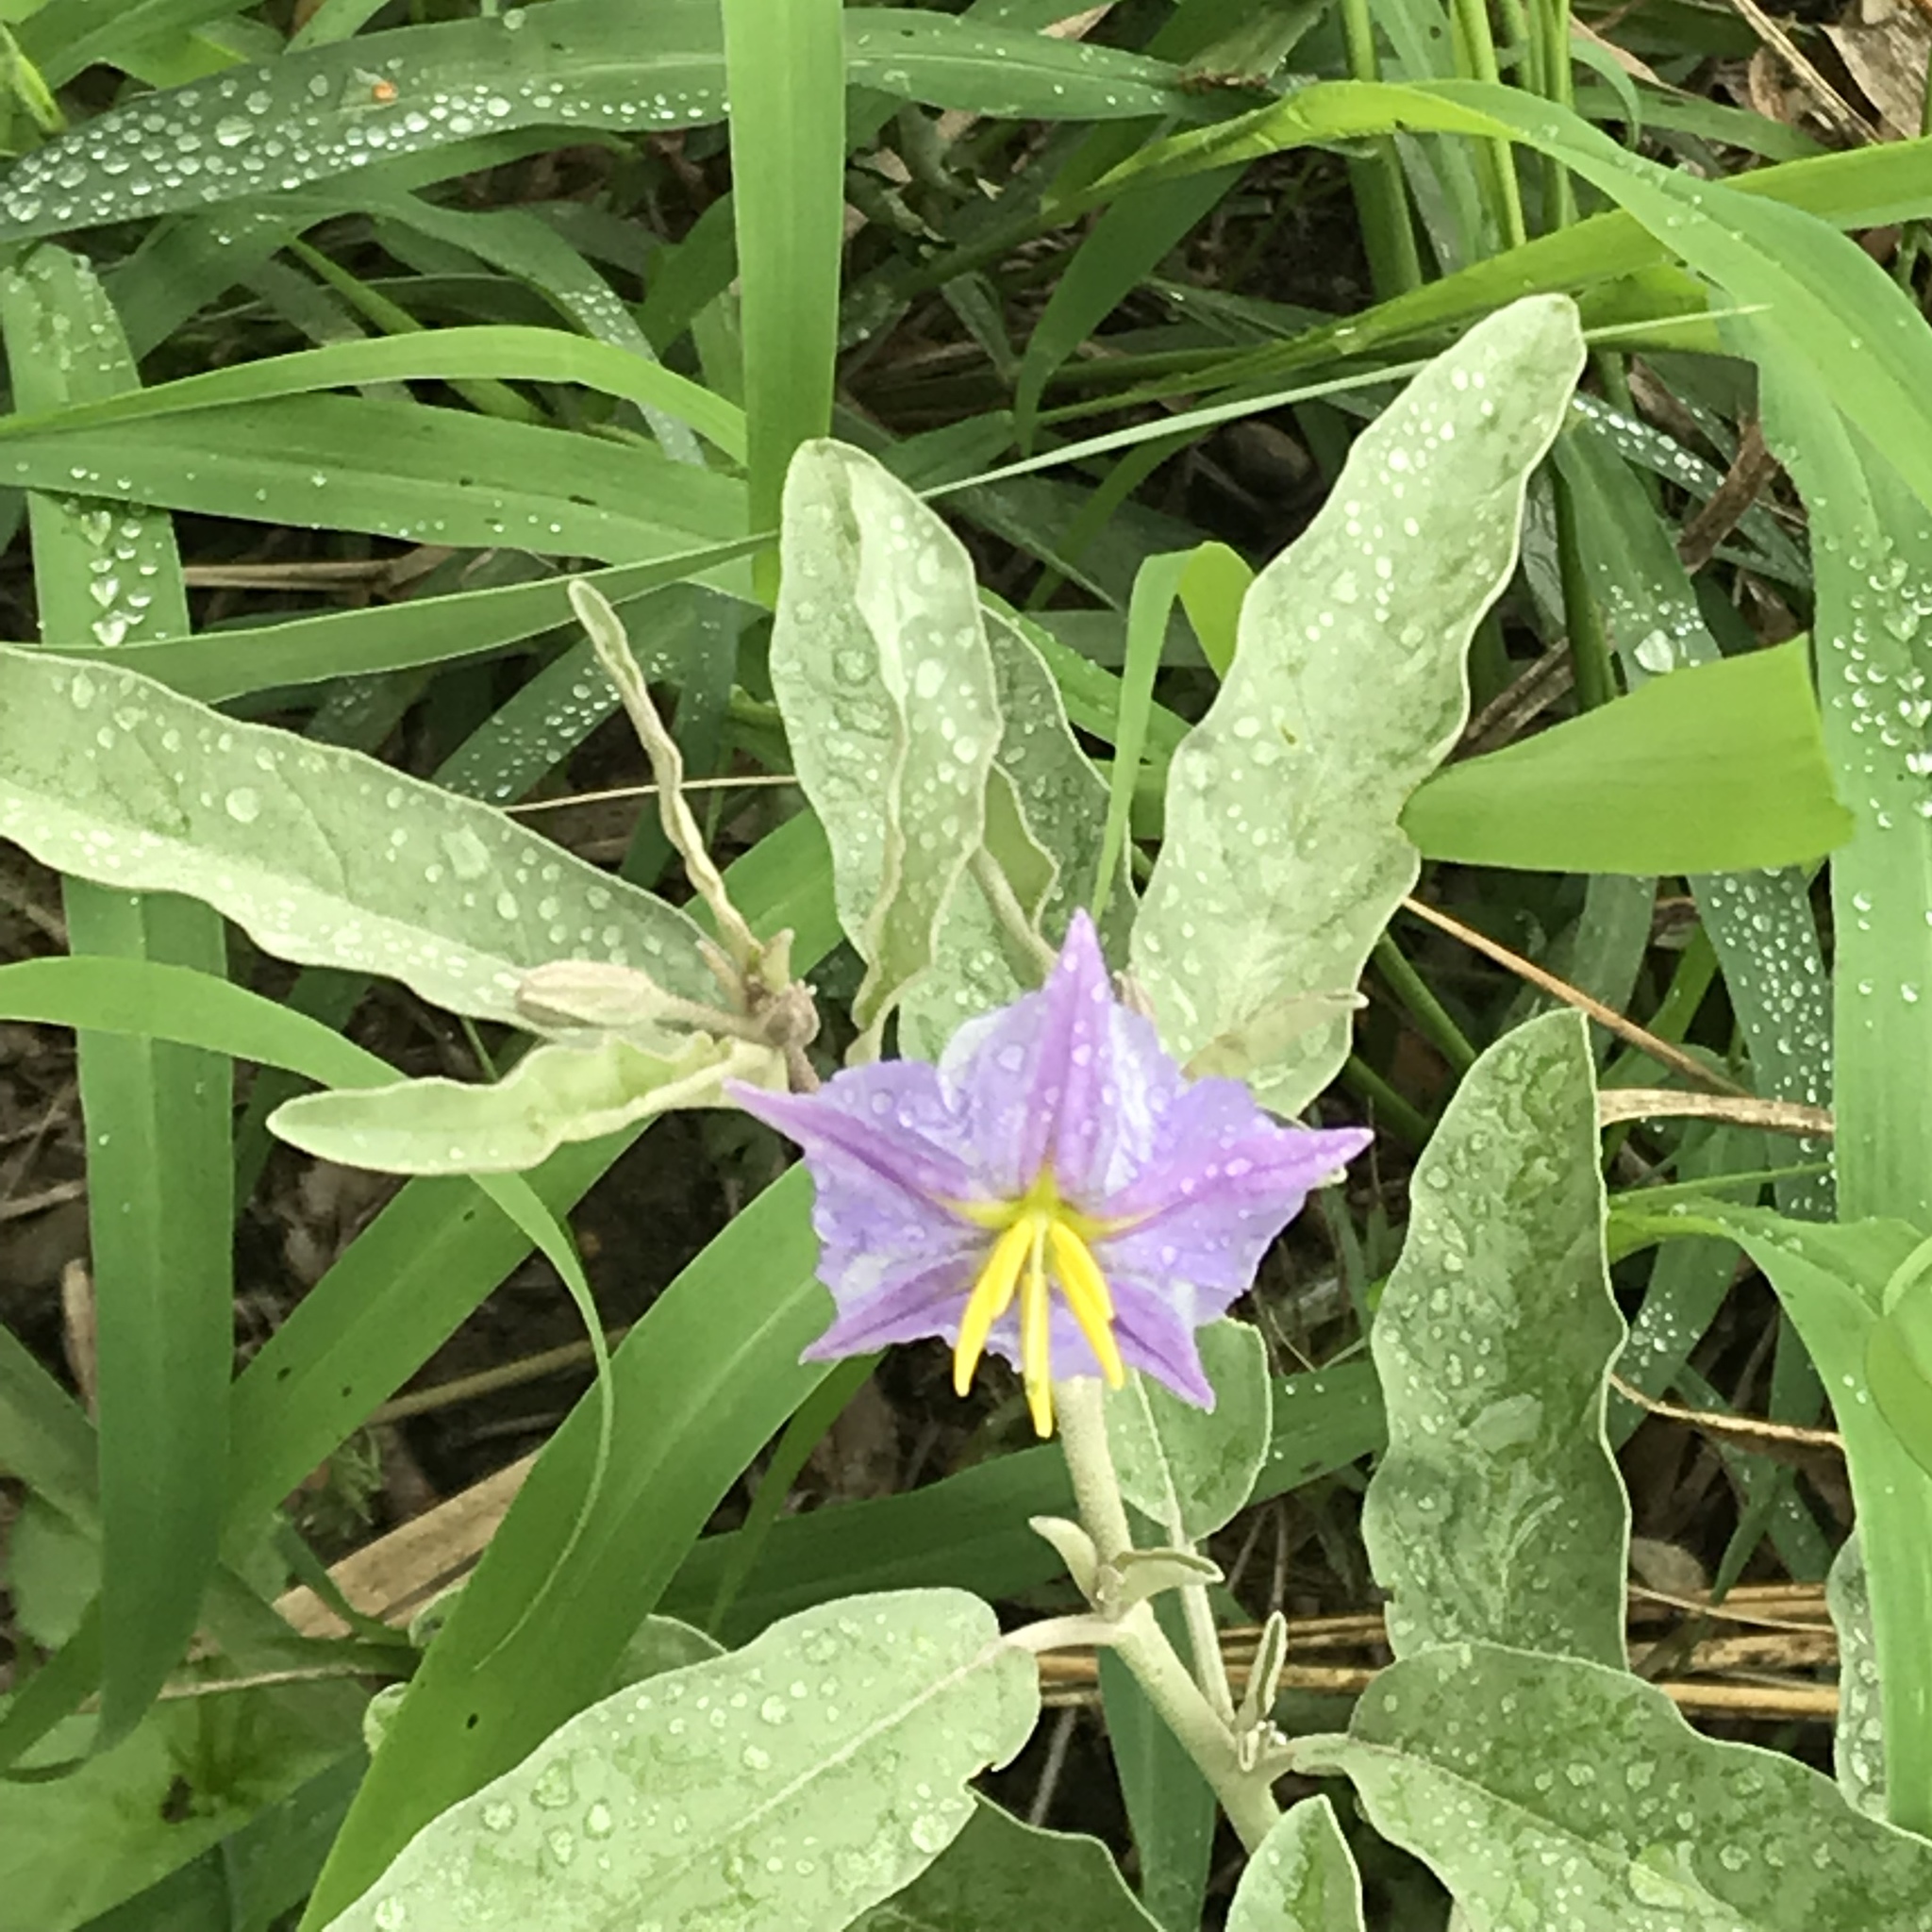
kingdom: Plantae
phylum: Tracheophyta
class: Magnoliopsida
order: Solanales
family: Solanaceae
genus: Solanum
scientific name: Solanum elaeagnifolium
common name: Silverleaf nightshade
